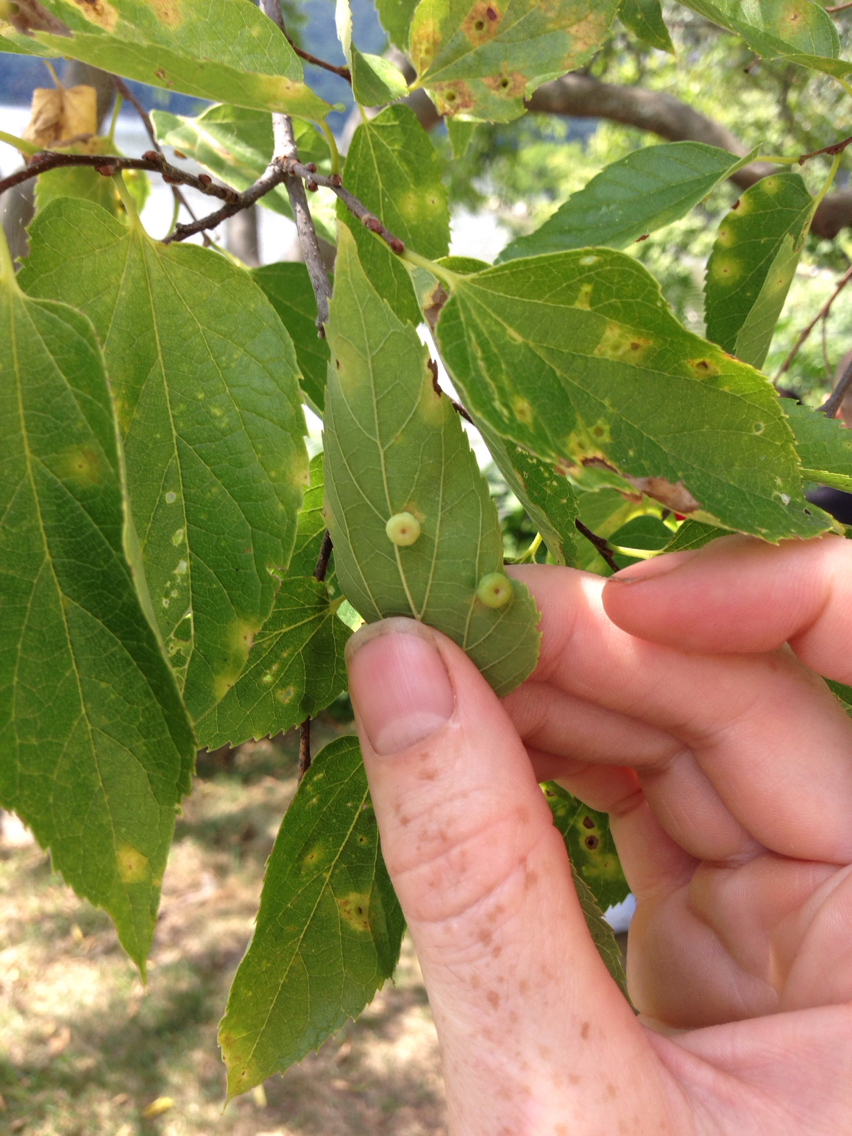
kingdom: Animalia
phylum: Arthropoda
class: Insecta
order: Hemiptera
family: Aphalaridae
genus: Pachypsylla
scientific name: Pachypsylla celtidismamma
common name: Hackberry nipplegall psyllid
